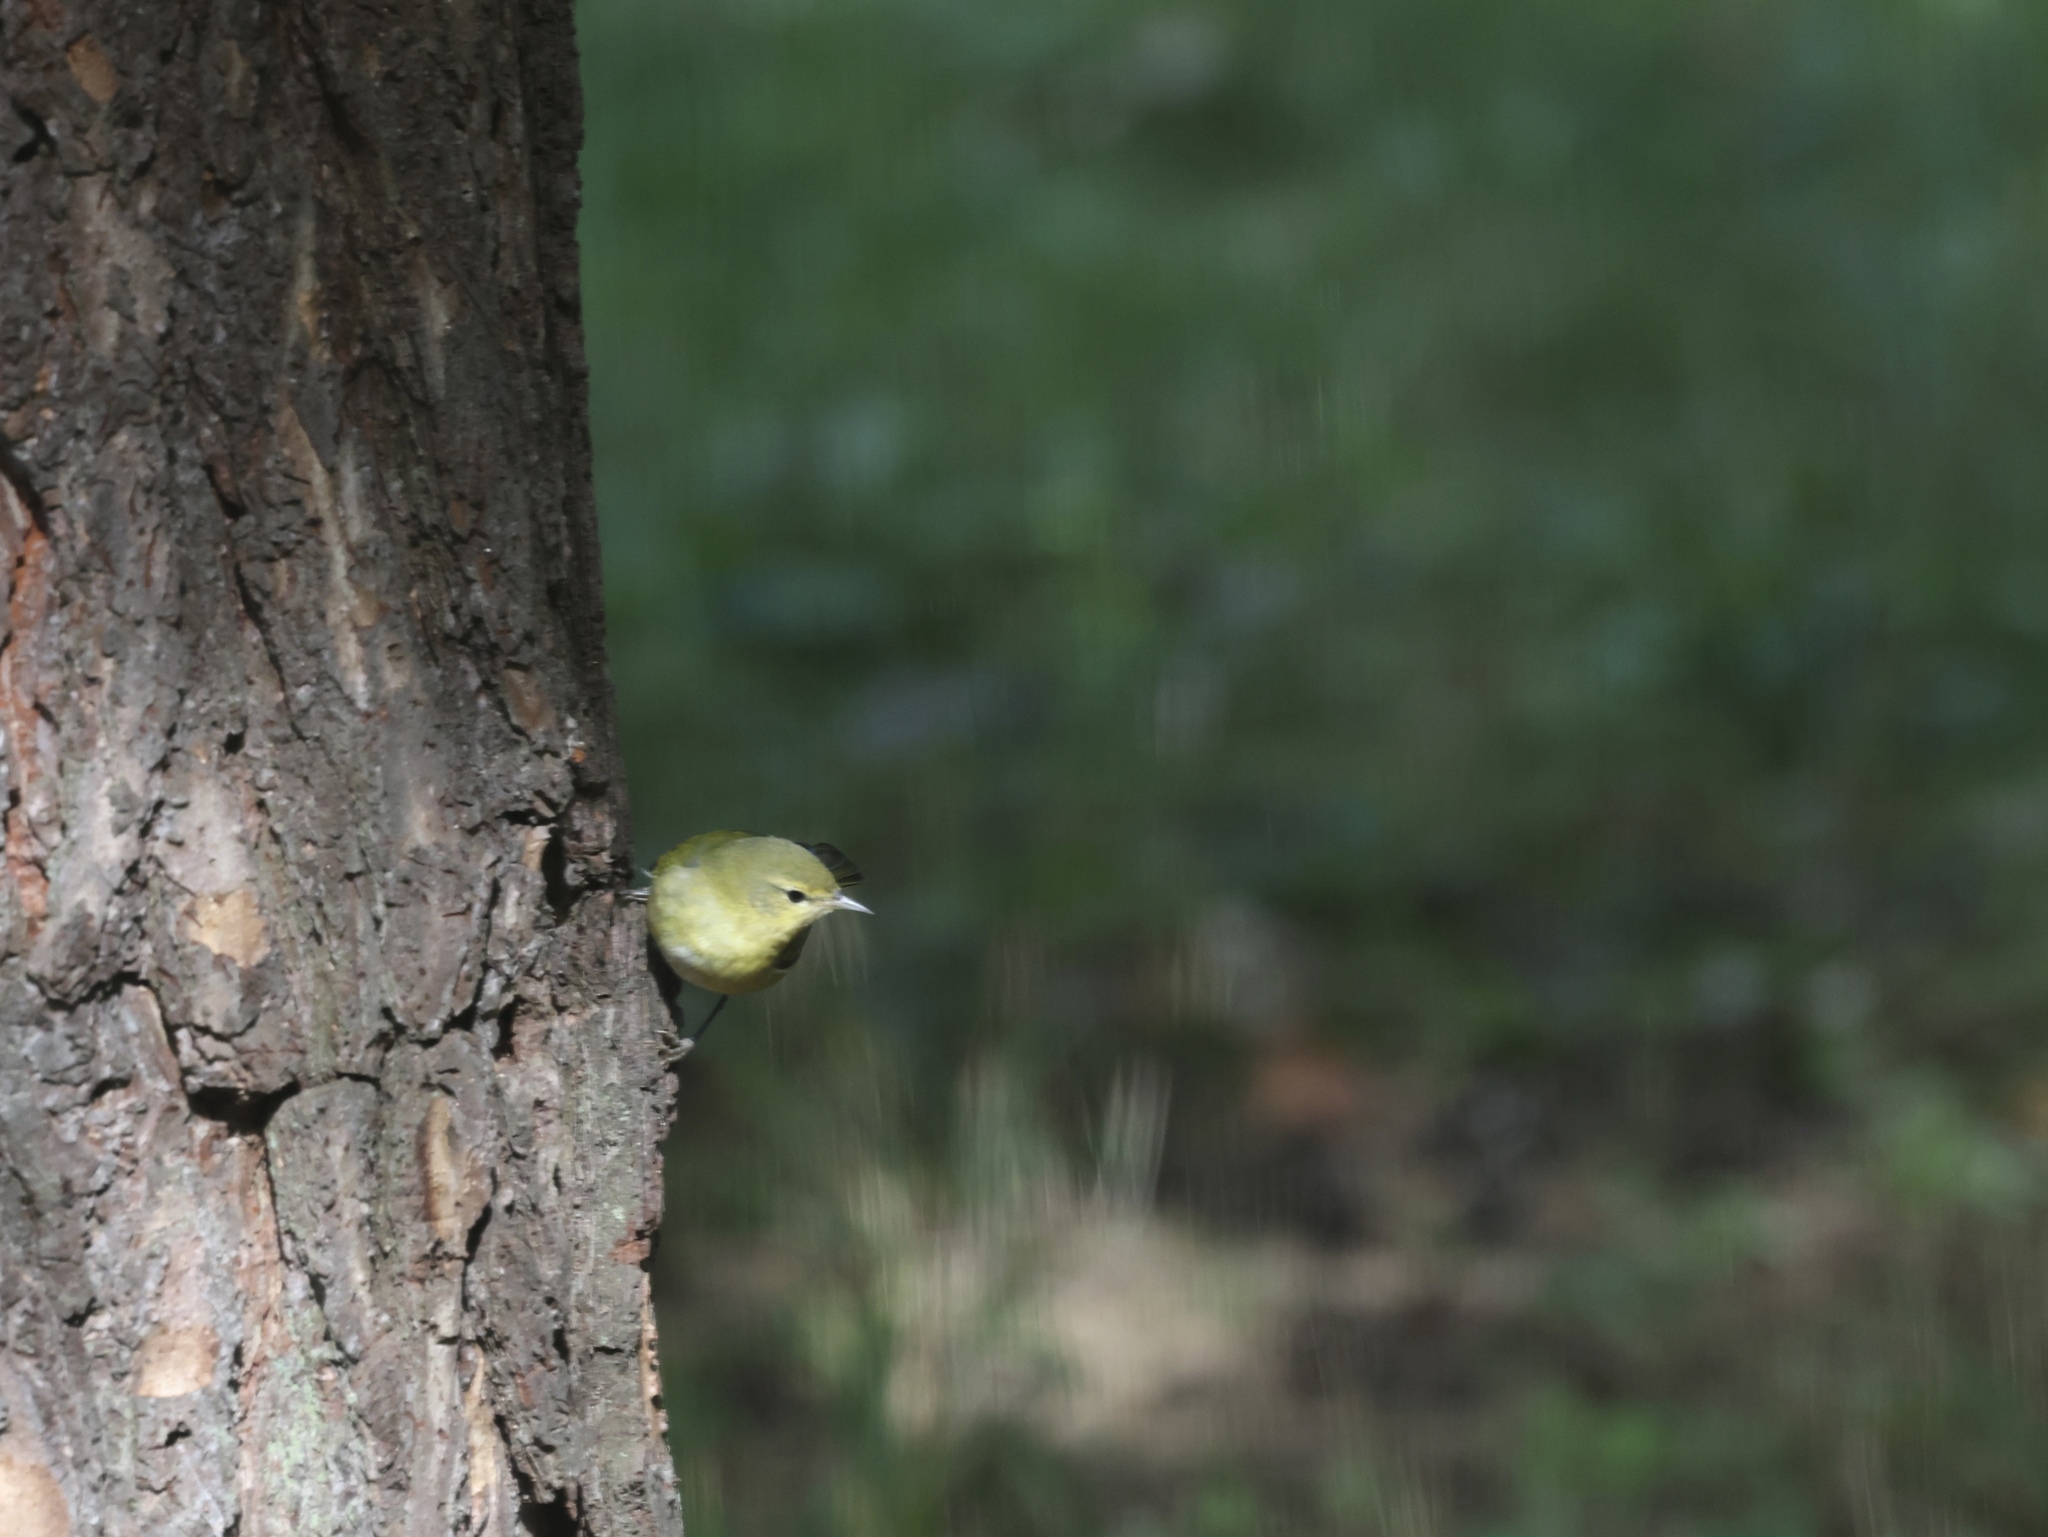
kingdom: Animalia
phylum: Chordata
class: Aves
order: Passeriformes
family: Parulidae
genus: Leiothlypis
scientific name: Leiothlypis peregrina
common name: Tennessee warbler
